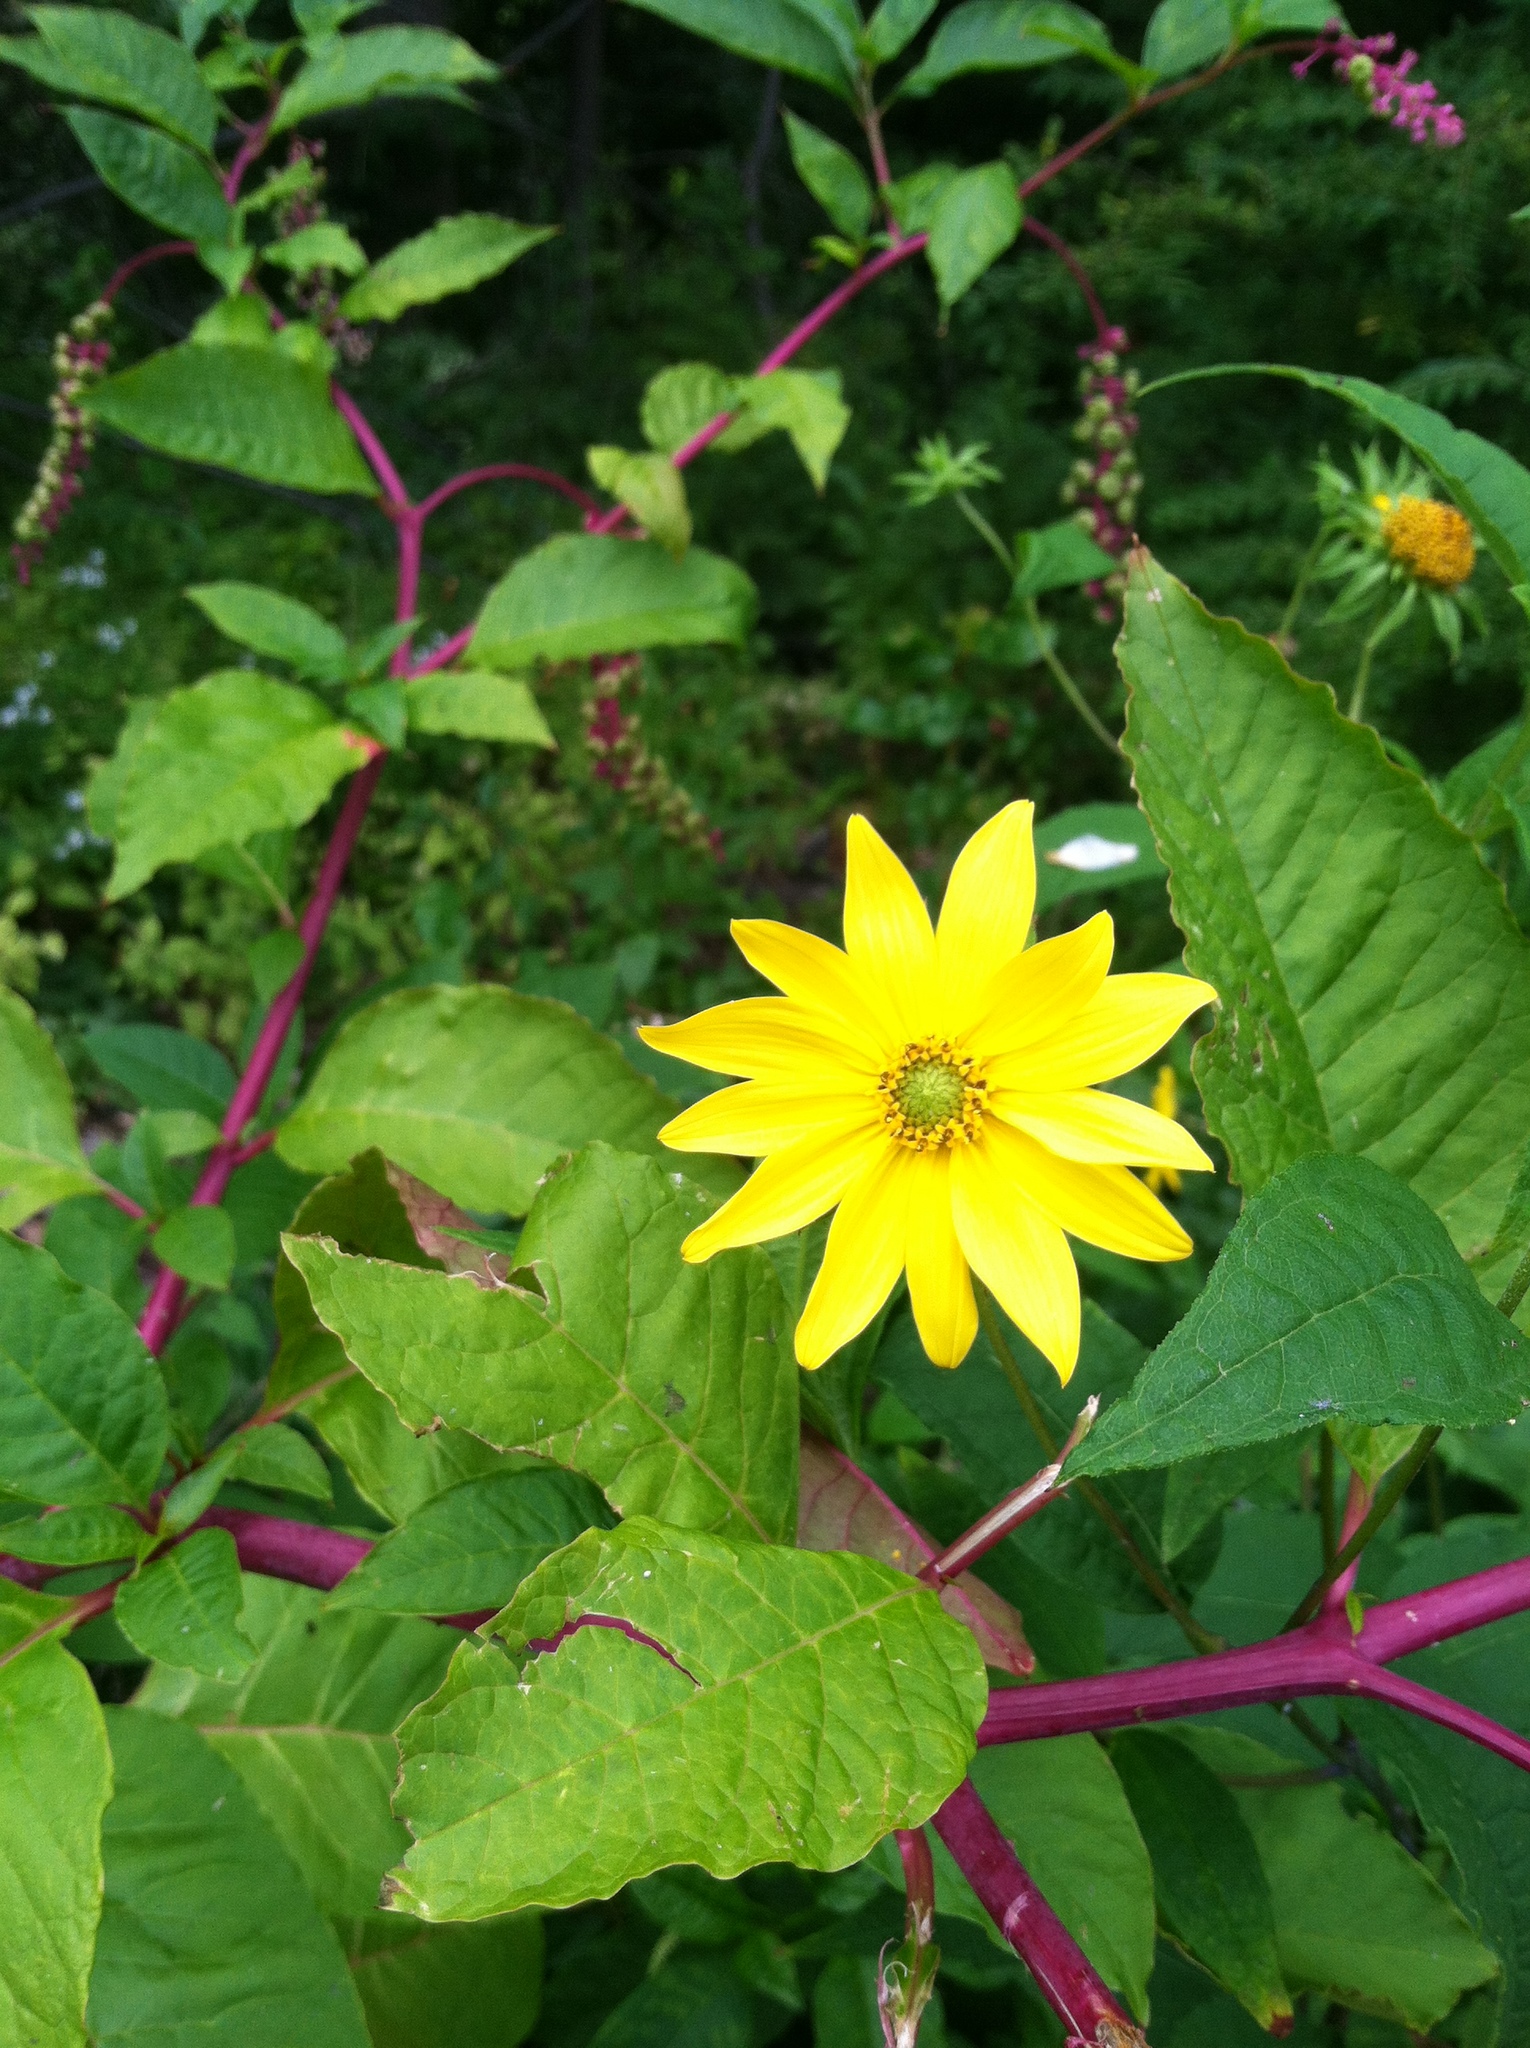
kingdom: Plantae
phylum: Tracheophyta
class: Magnoliopsida
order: Caryophyllales
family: Phytolaccaceae
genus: Phytolacca
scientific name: Phytolacca americana
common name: American pokeweed
